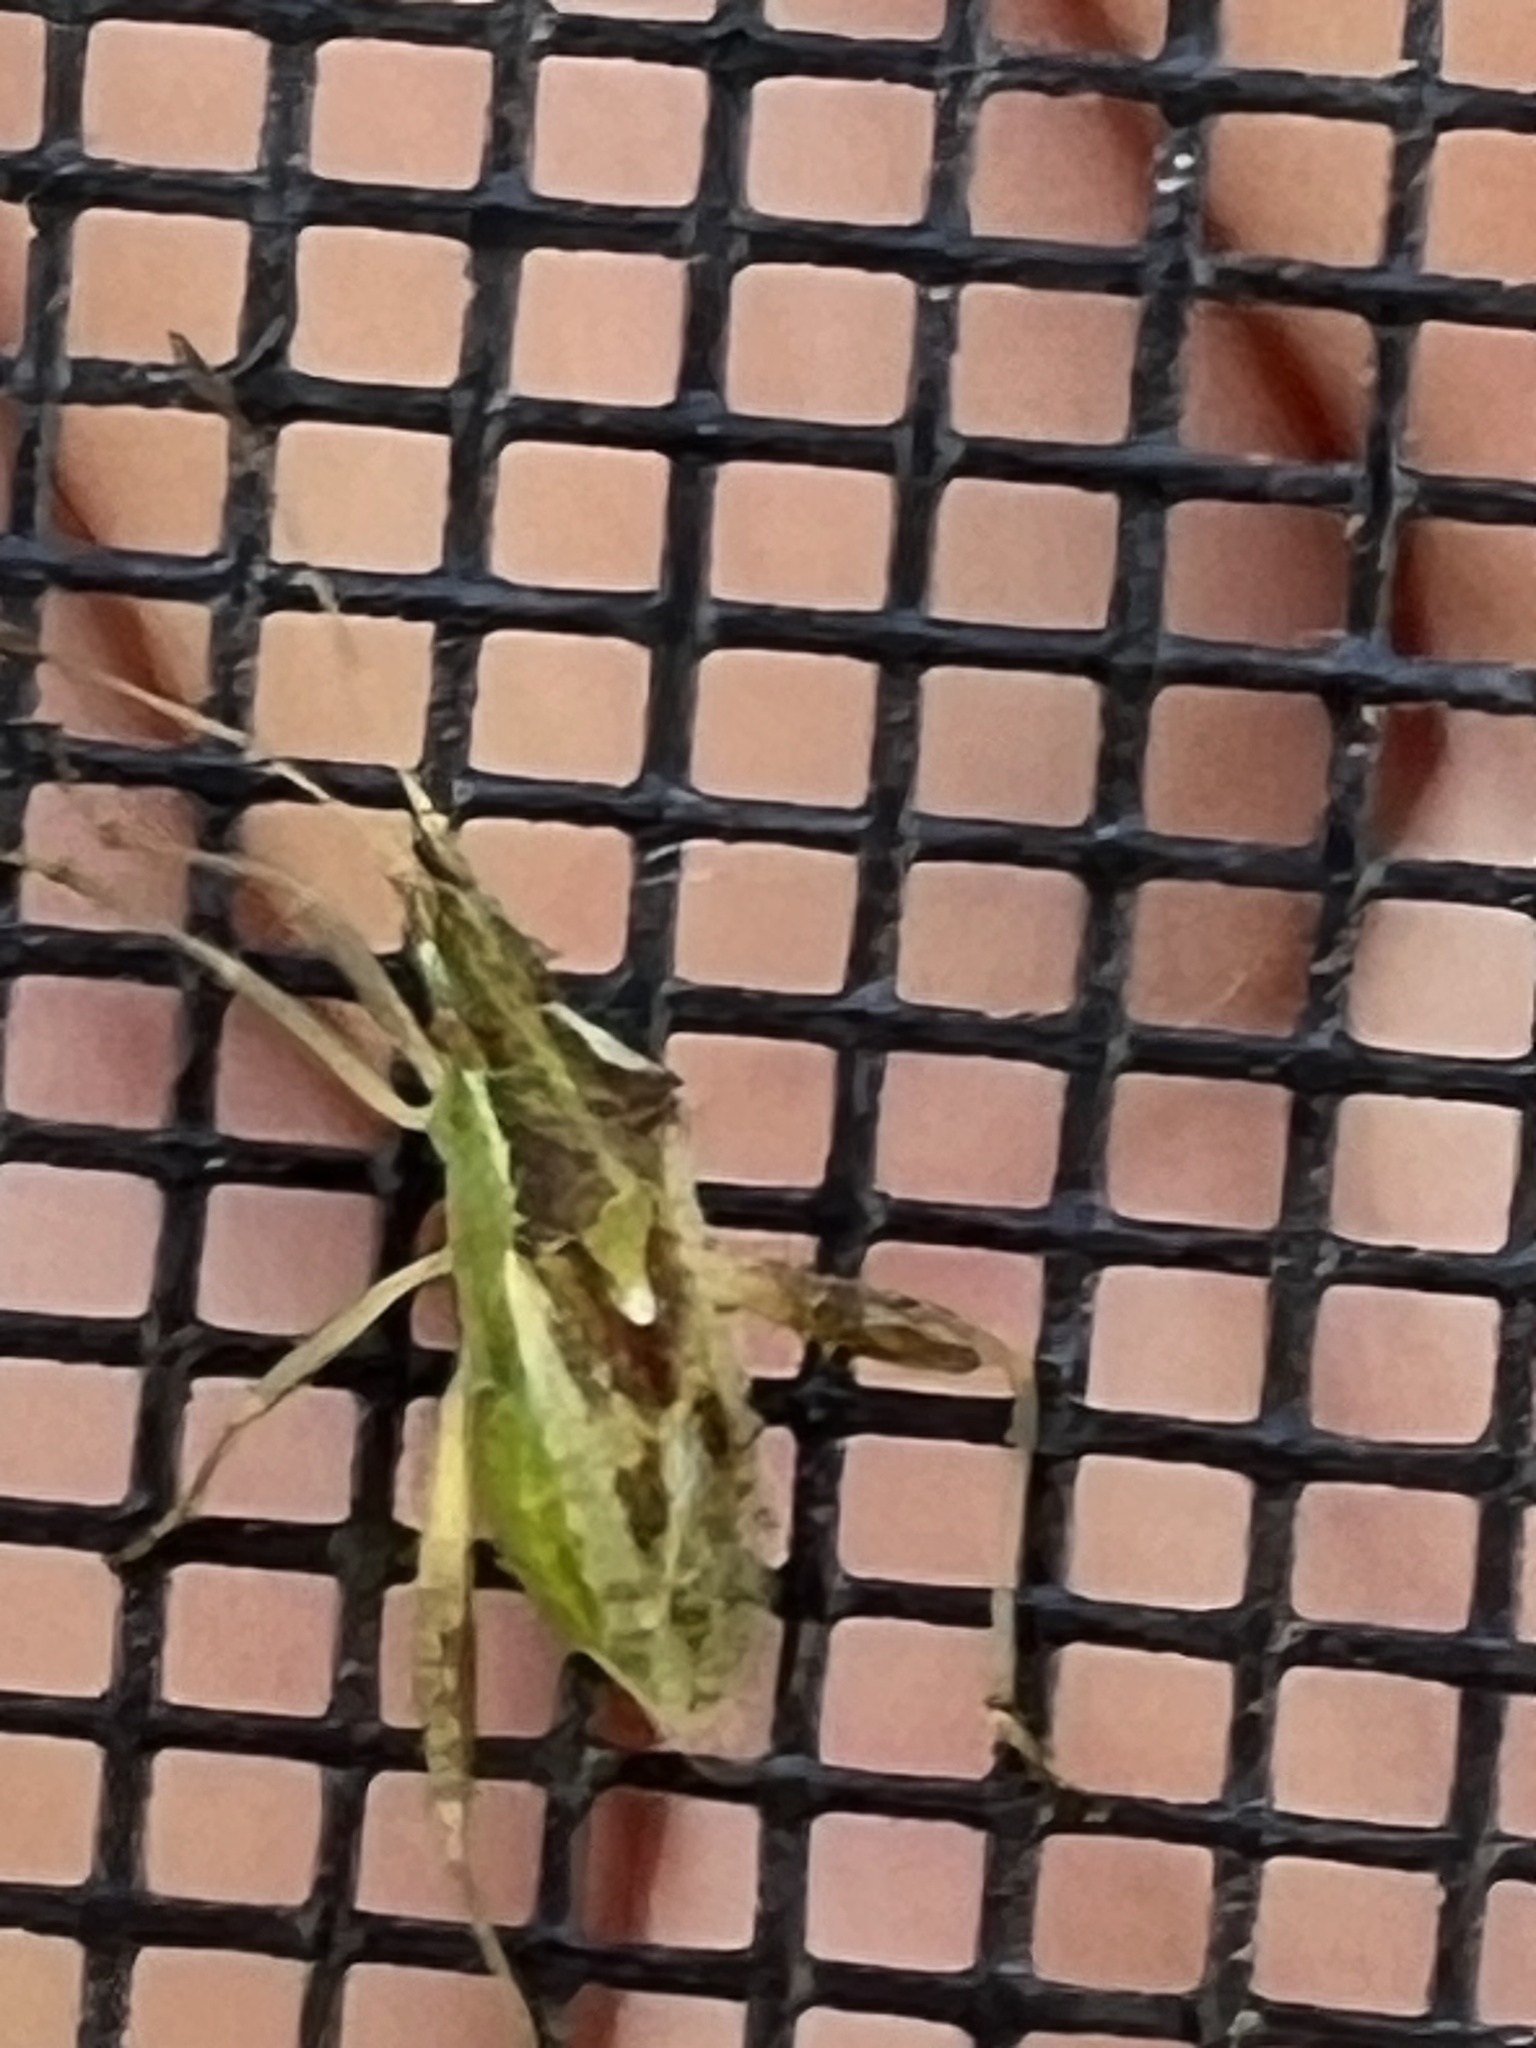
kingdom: Animalia
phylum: Arthropoda
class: Insecta
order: Hemiptera
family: Rhopalidae
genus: Harmostes
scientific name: Harmostes reflexulus
